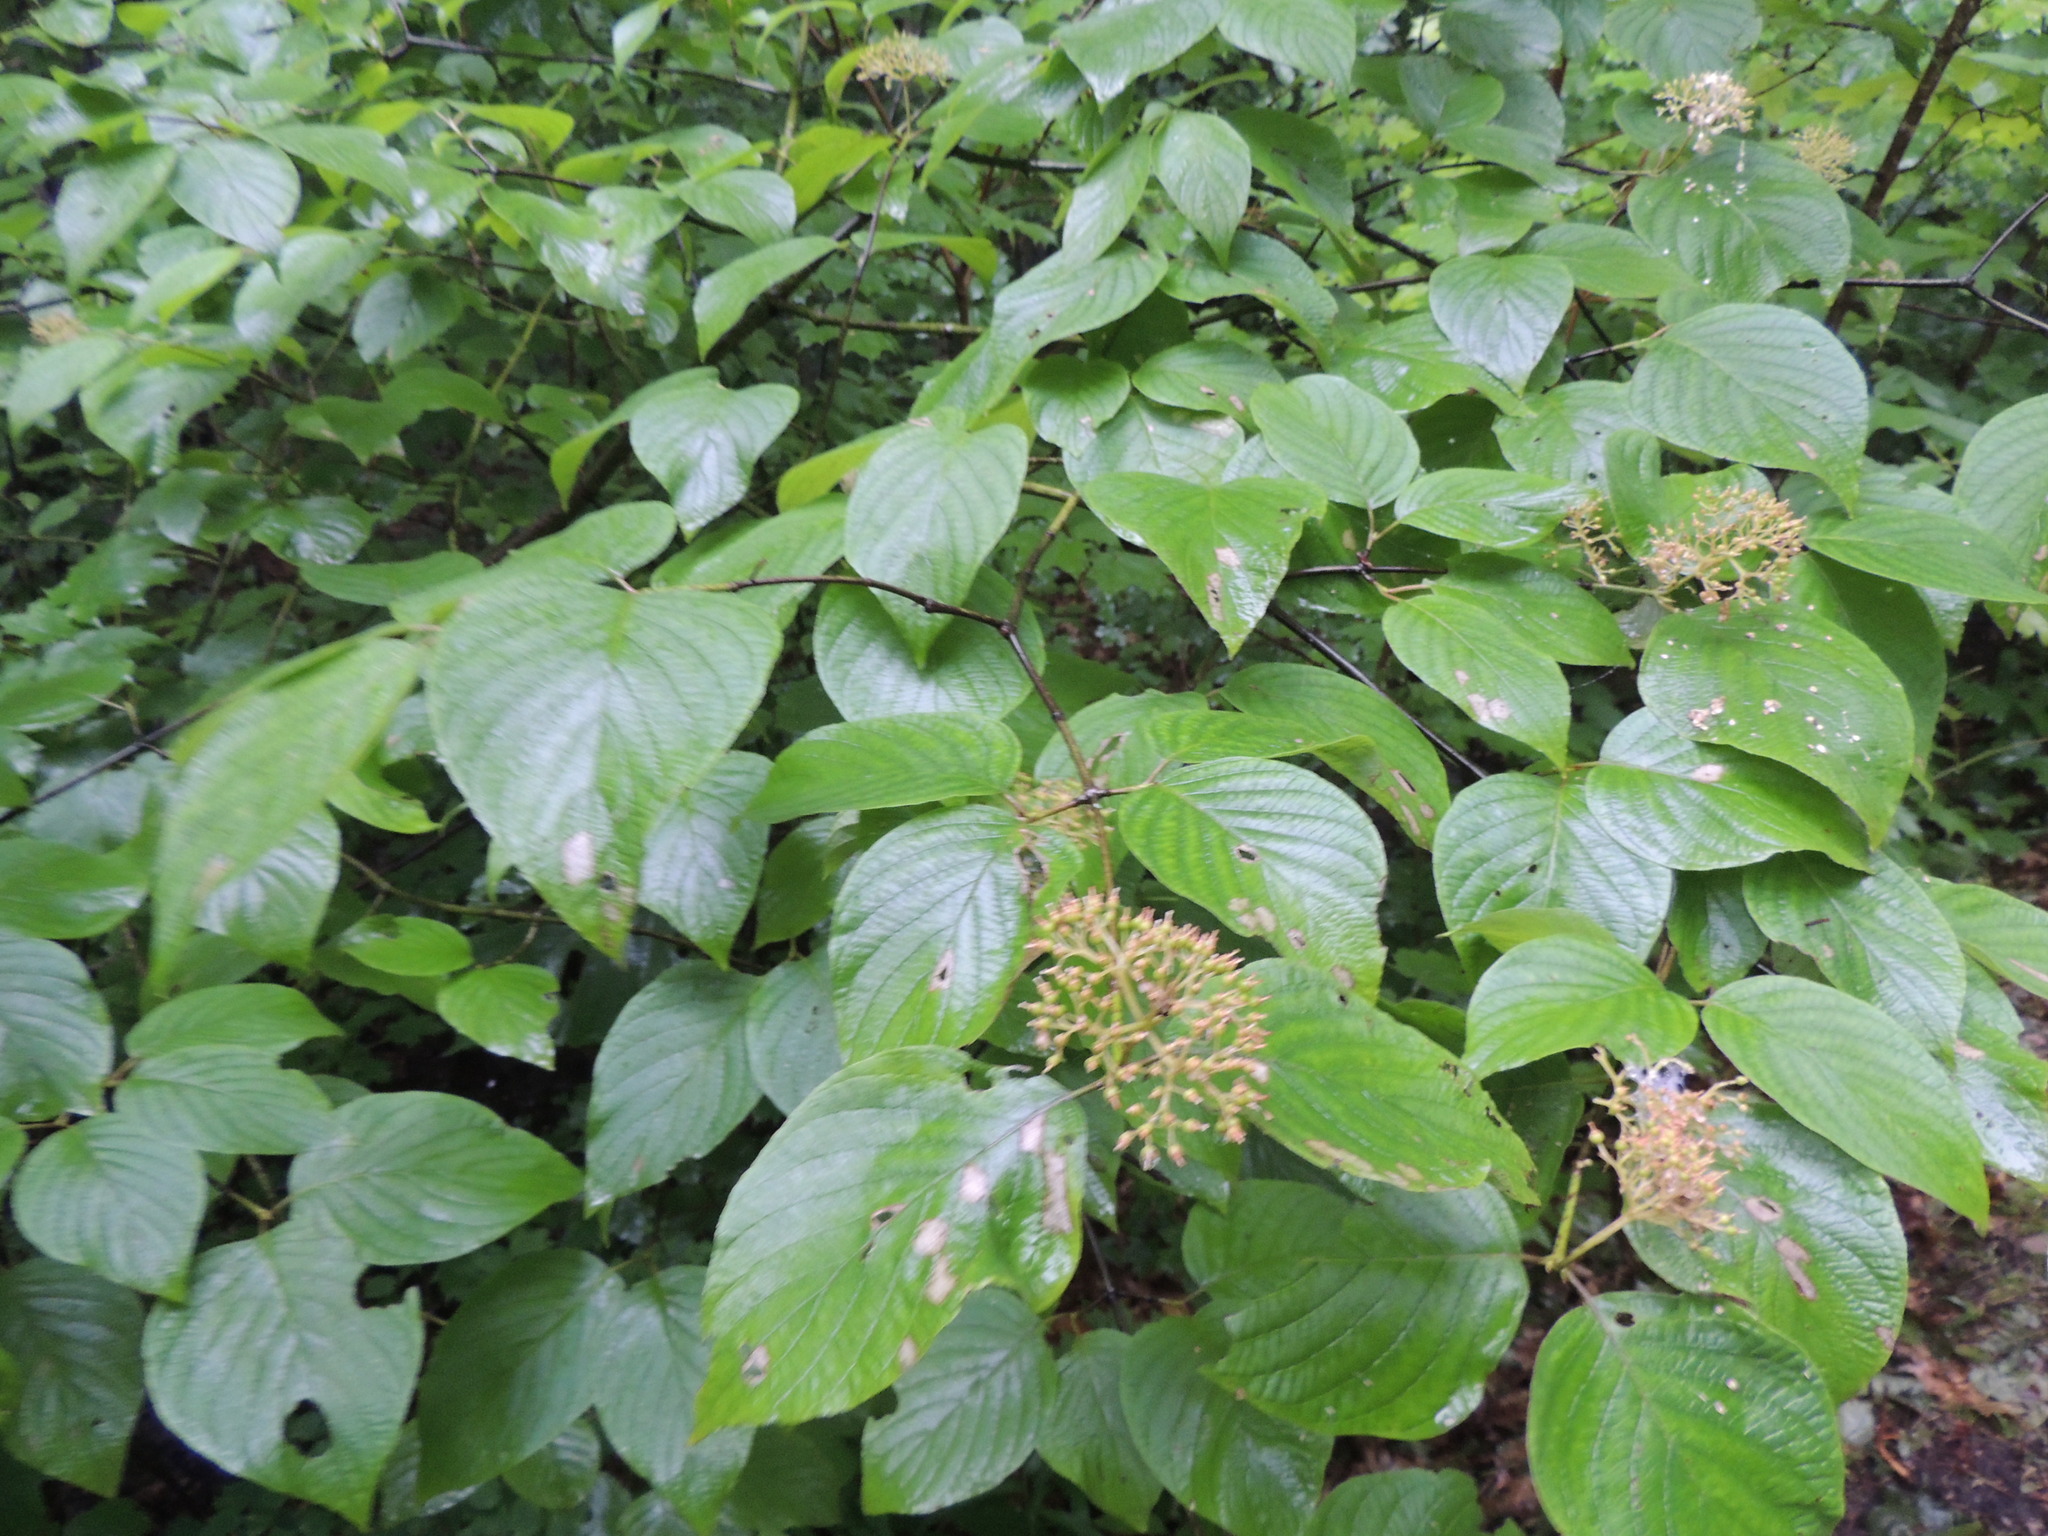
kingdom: Plantae
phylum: Tracheophyta
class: Magnoliopsida
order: Cornales
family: Cornaceae
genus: Cornus
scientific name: Cornus rugosa
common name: Round-leaf dogwood
